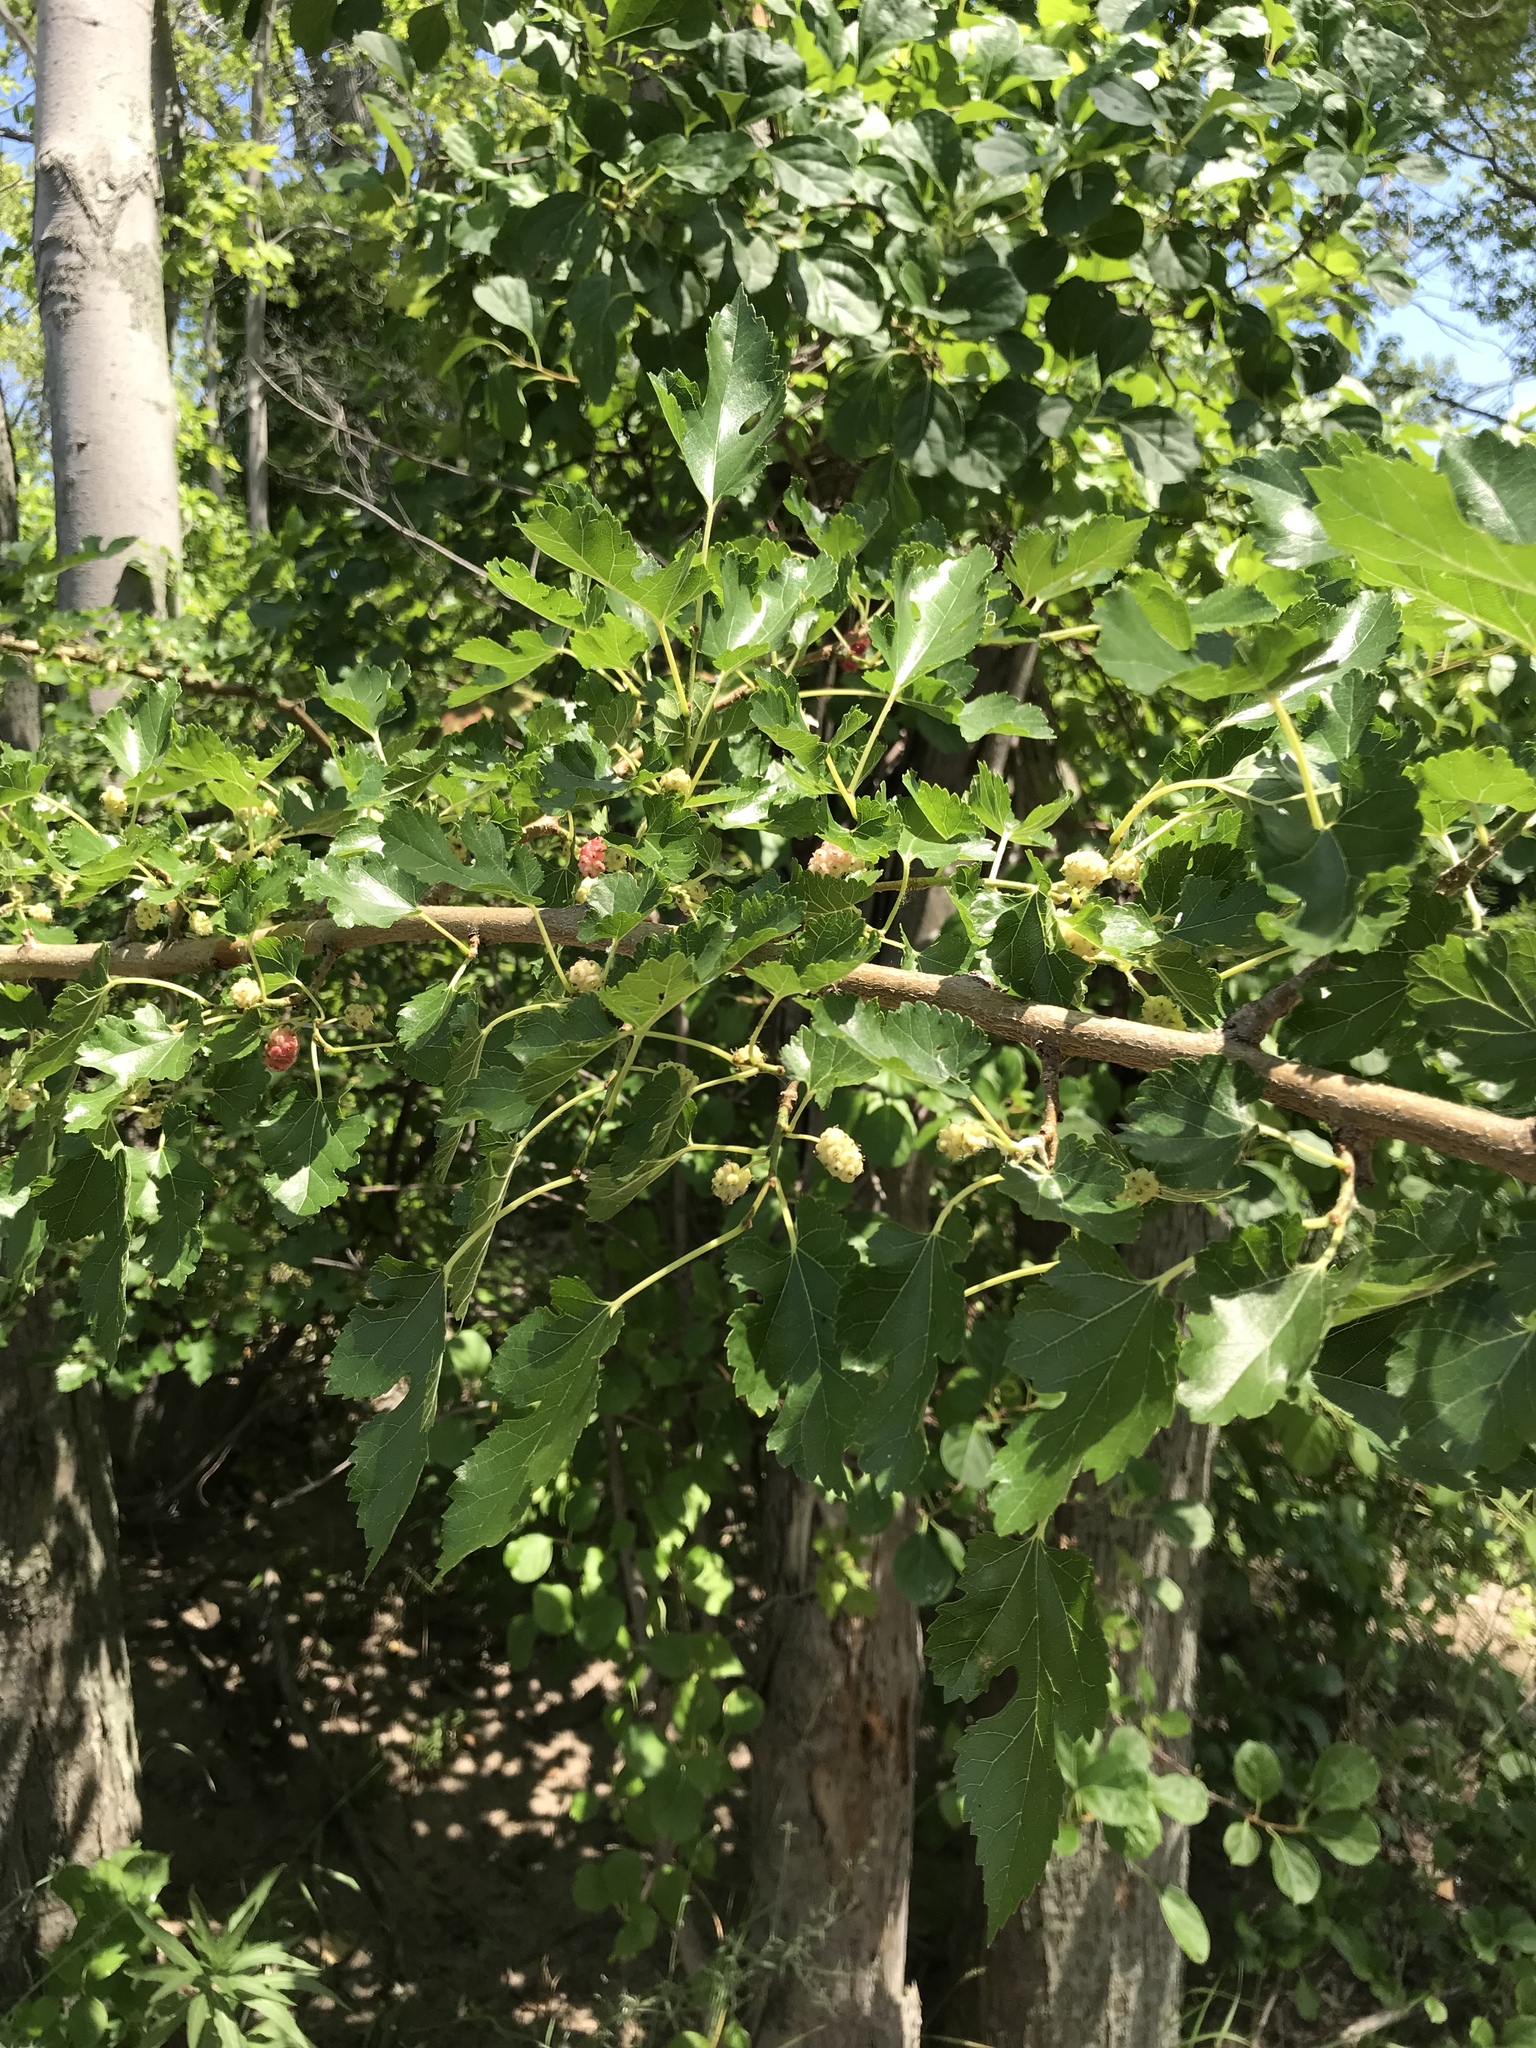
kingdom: Plantae
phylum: Tracheophyta
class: Magnoliopsida
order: Rosales
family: Moraceae
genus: Morus
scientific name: Morus alba
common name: White mulberry
